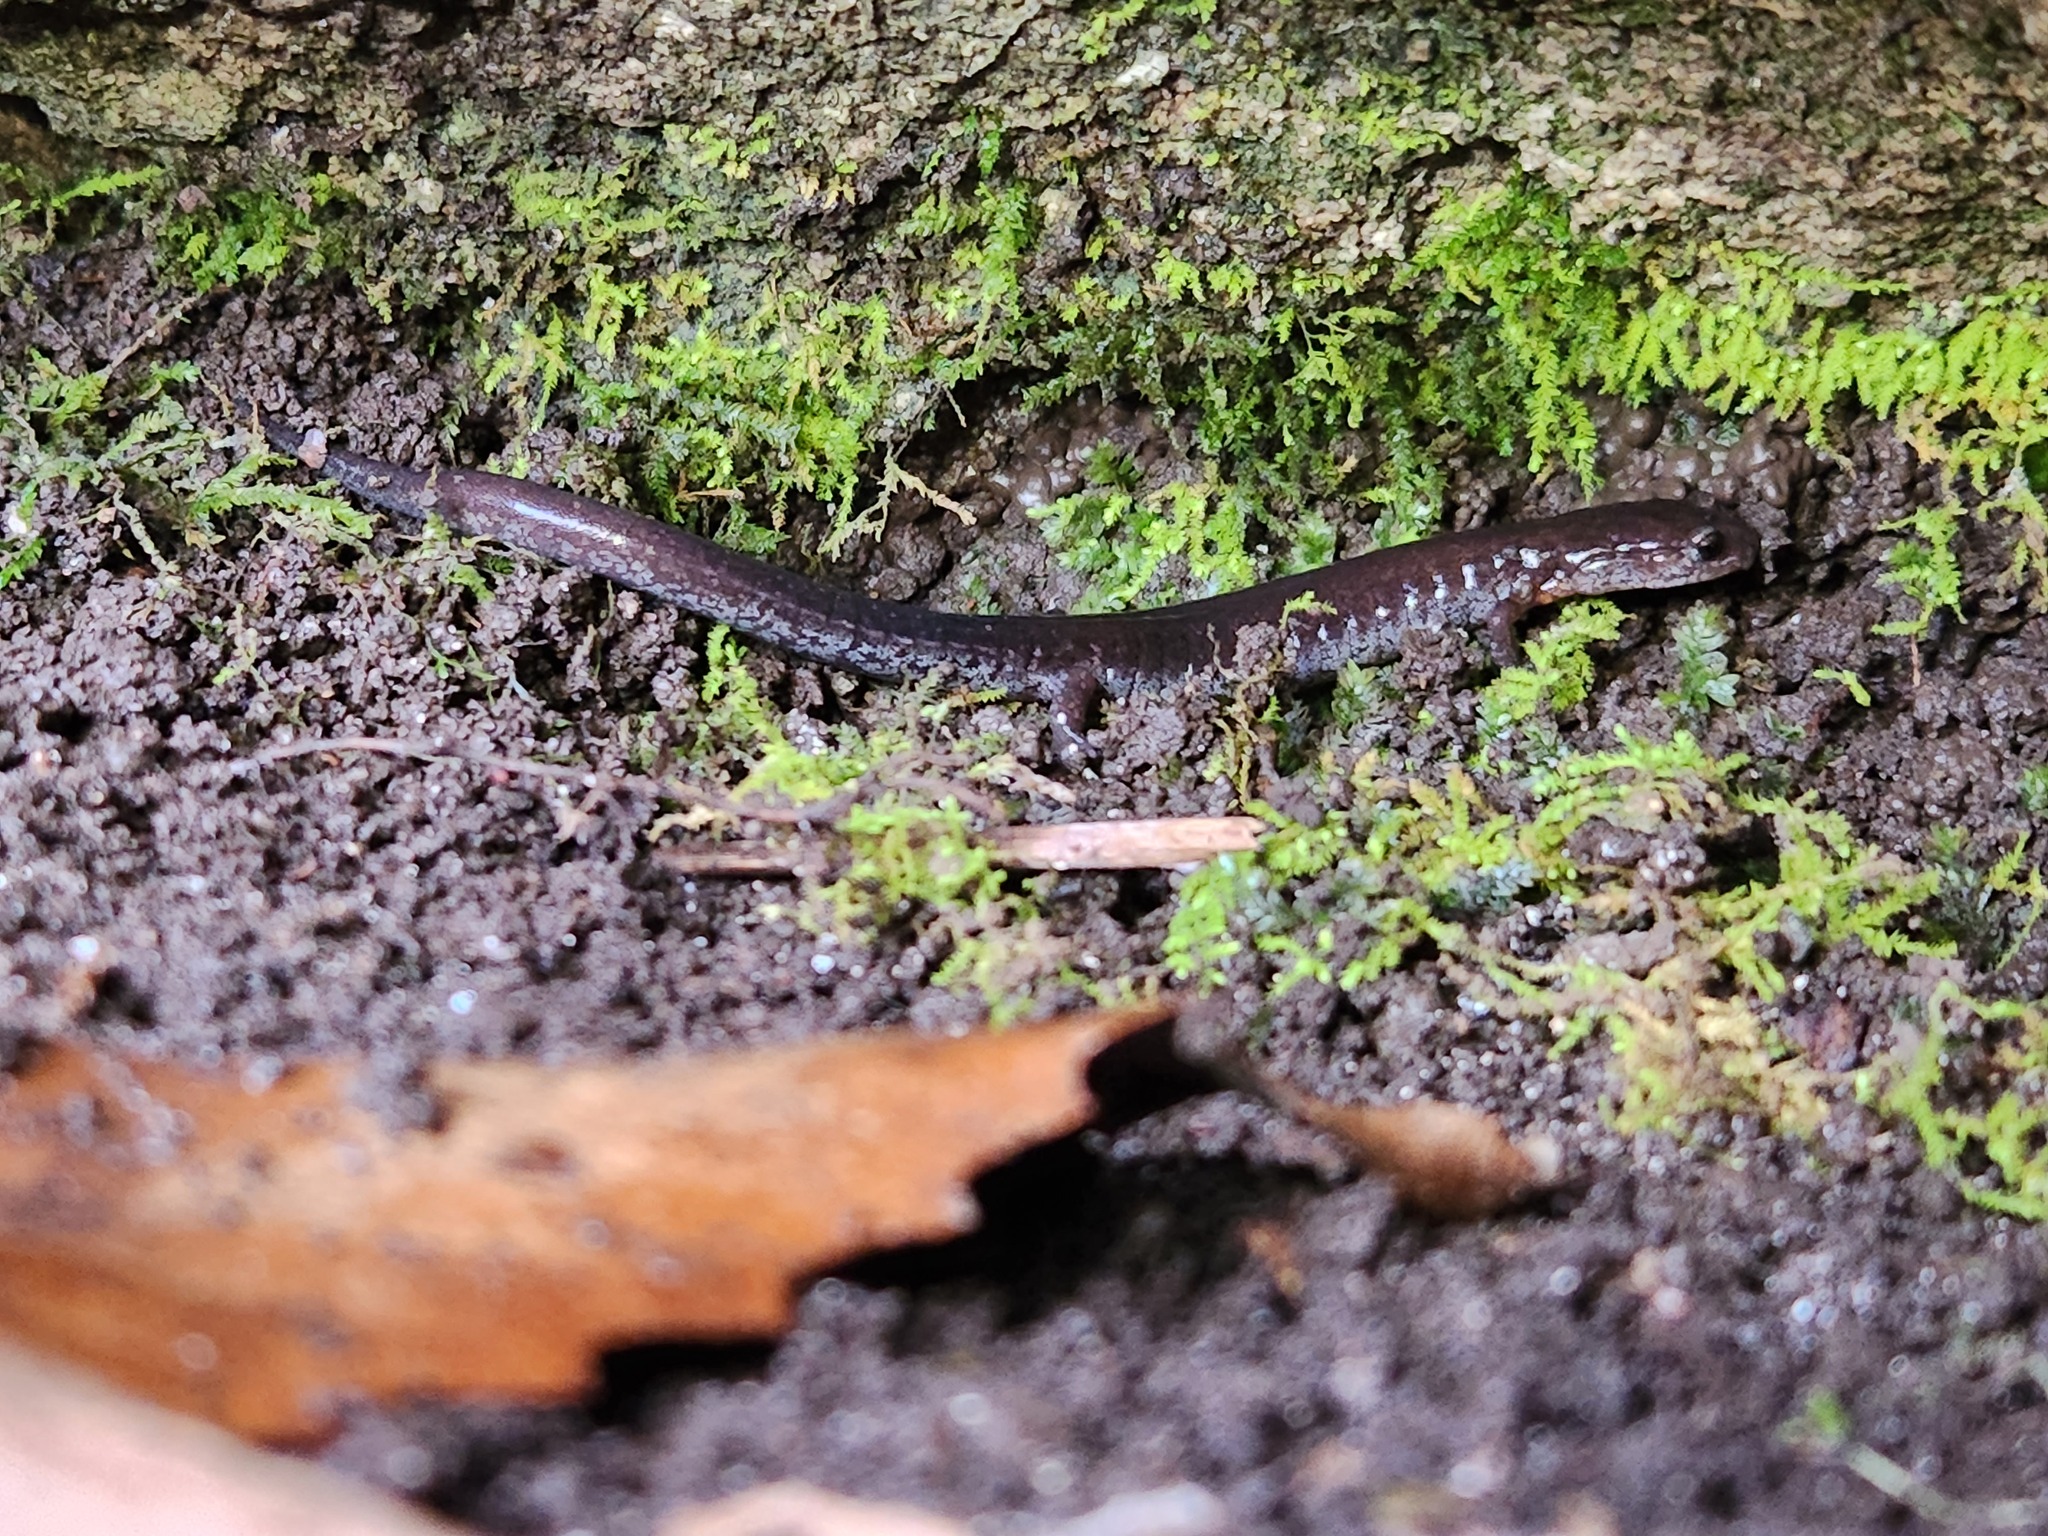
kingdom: Animalia
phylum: Chordata
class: Amphibia
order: Caudata
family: Plethodontidae
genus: Plethodon
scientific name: Plethodon dorsalis
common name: Northern zigzag salamander
